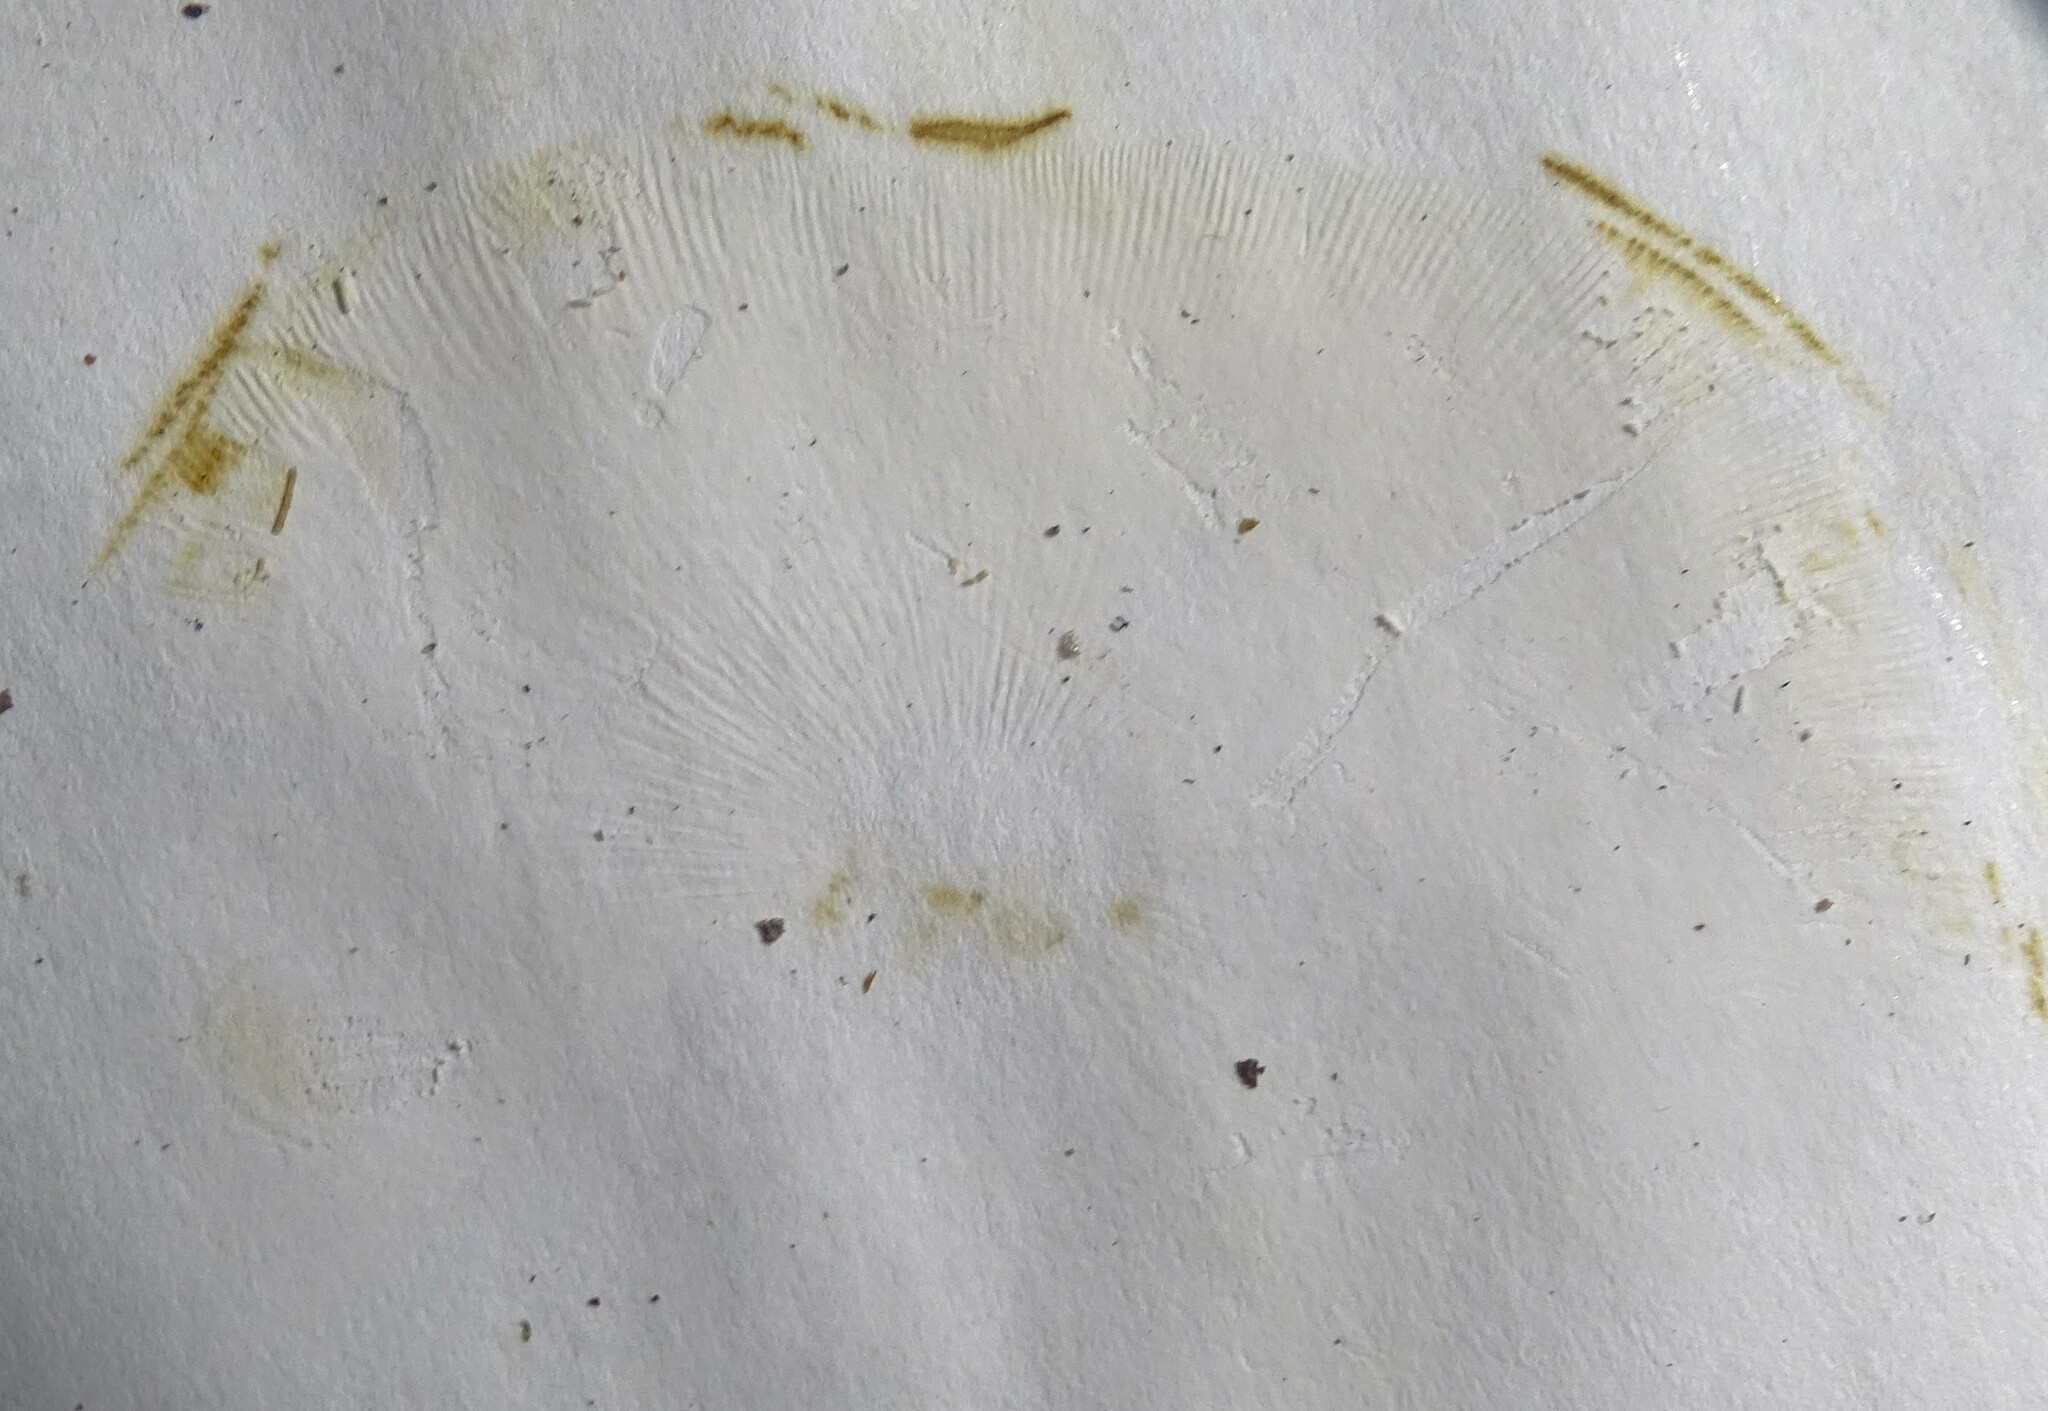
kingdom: Fungi
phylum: Basidiomycota
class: Agaricomycetes
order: Agaricales
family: Tricholomataceae
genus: Tricholomopsis
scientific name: Tricholomopsis decora
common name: Prunes and custard
